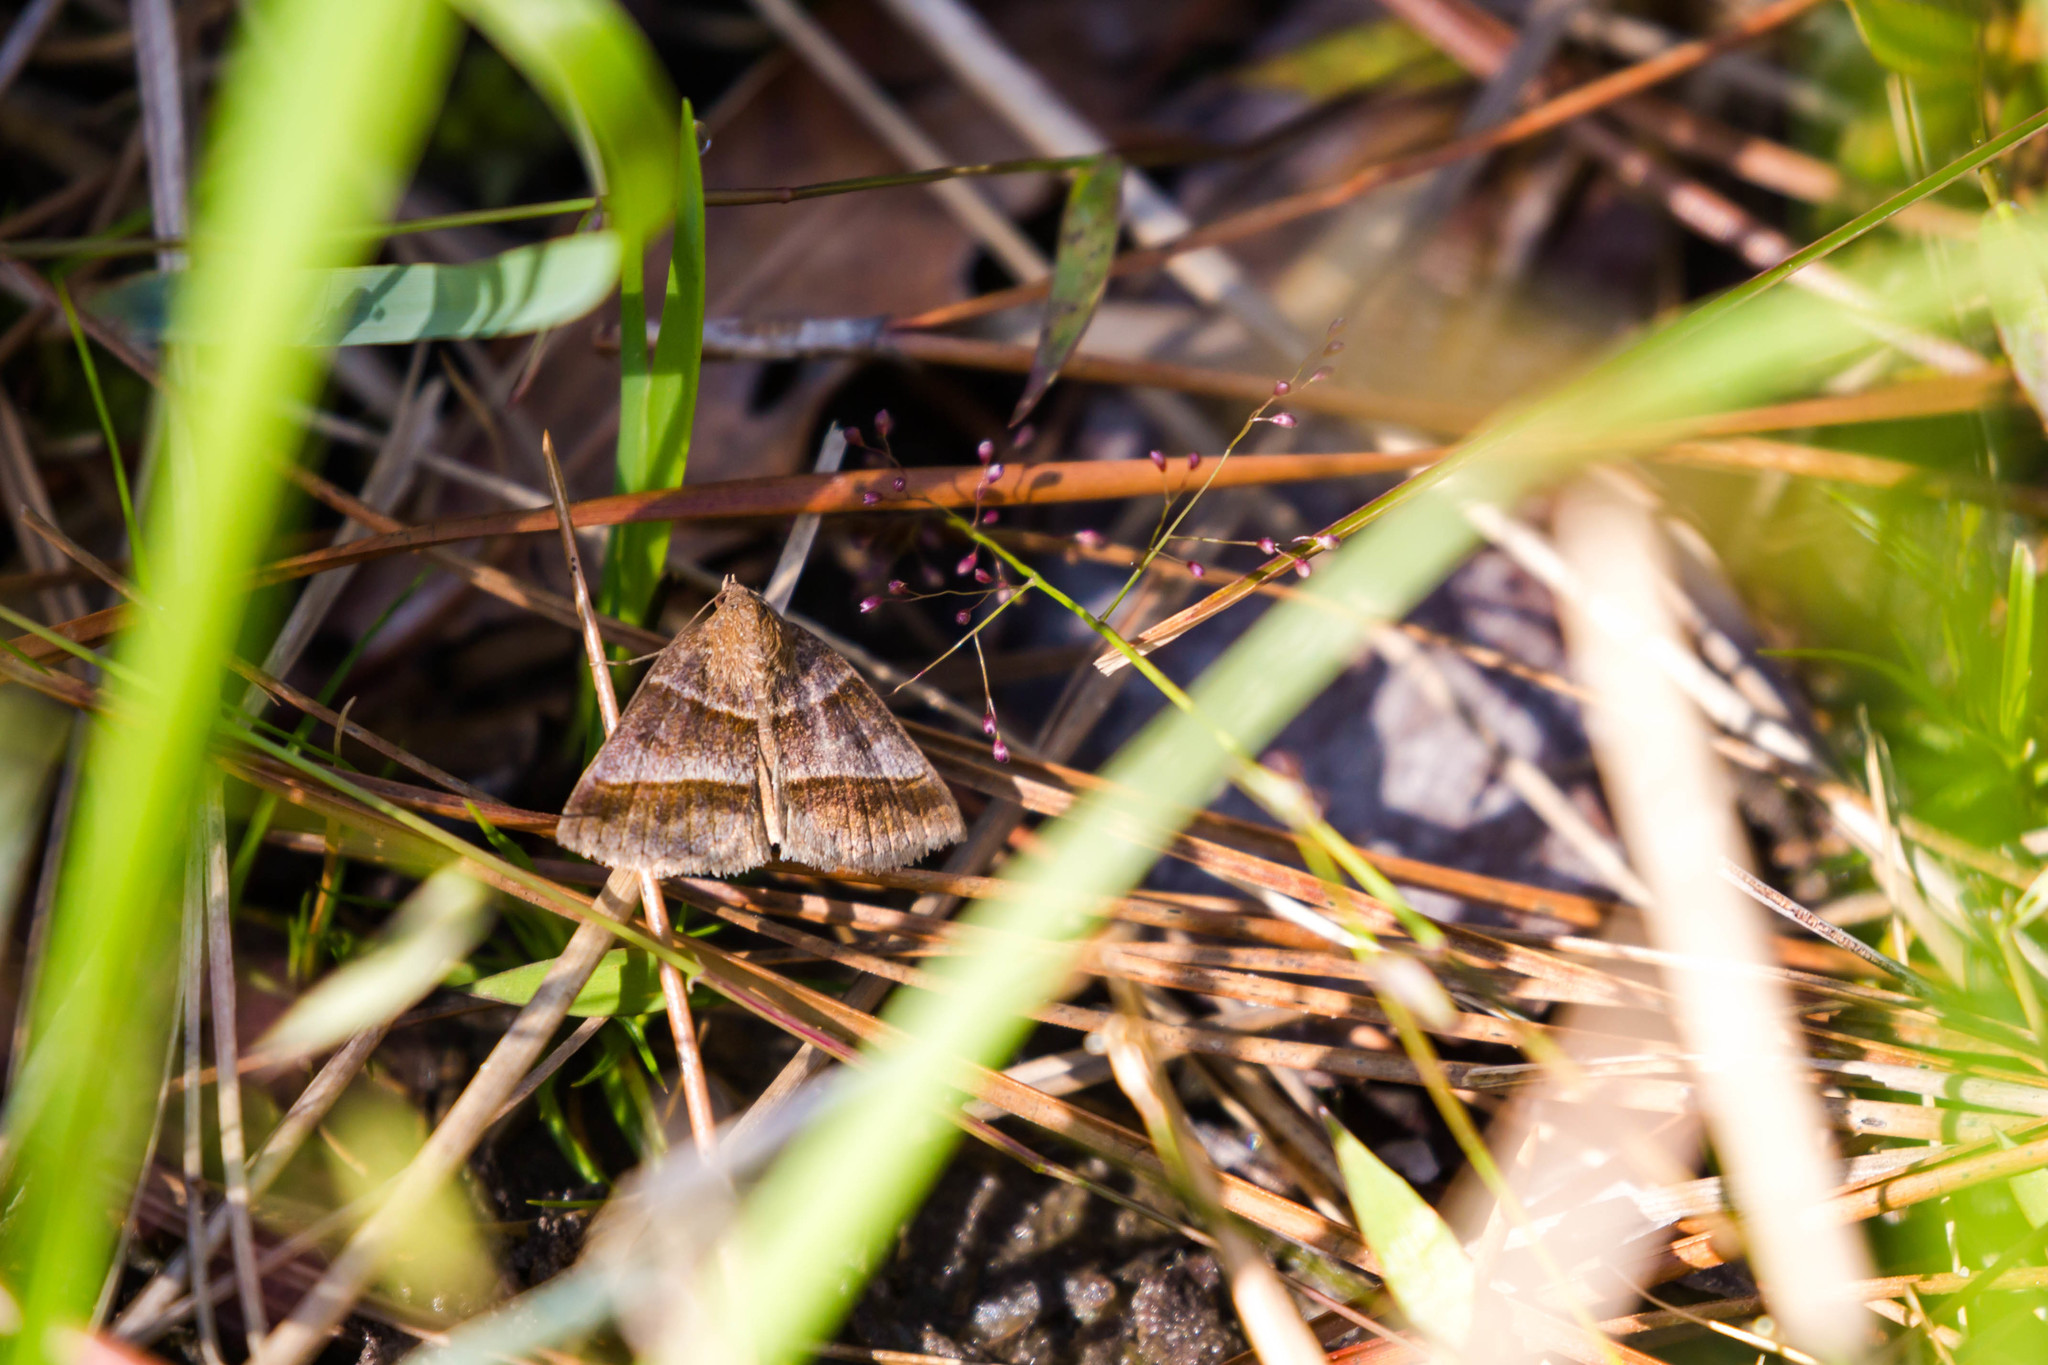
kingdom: Animalia
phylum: Arthropoda
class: Insecta
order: Lepidoptera
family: Erebidae
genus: Argyrostrotis
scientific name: Argyrostrotis sylvarum
